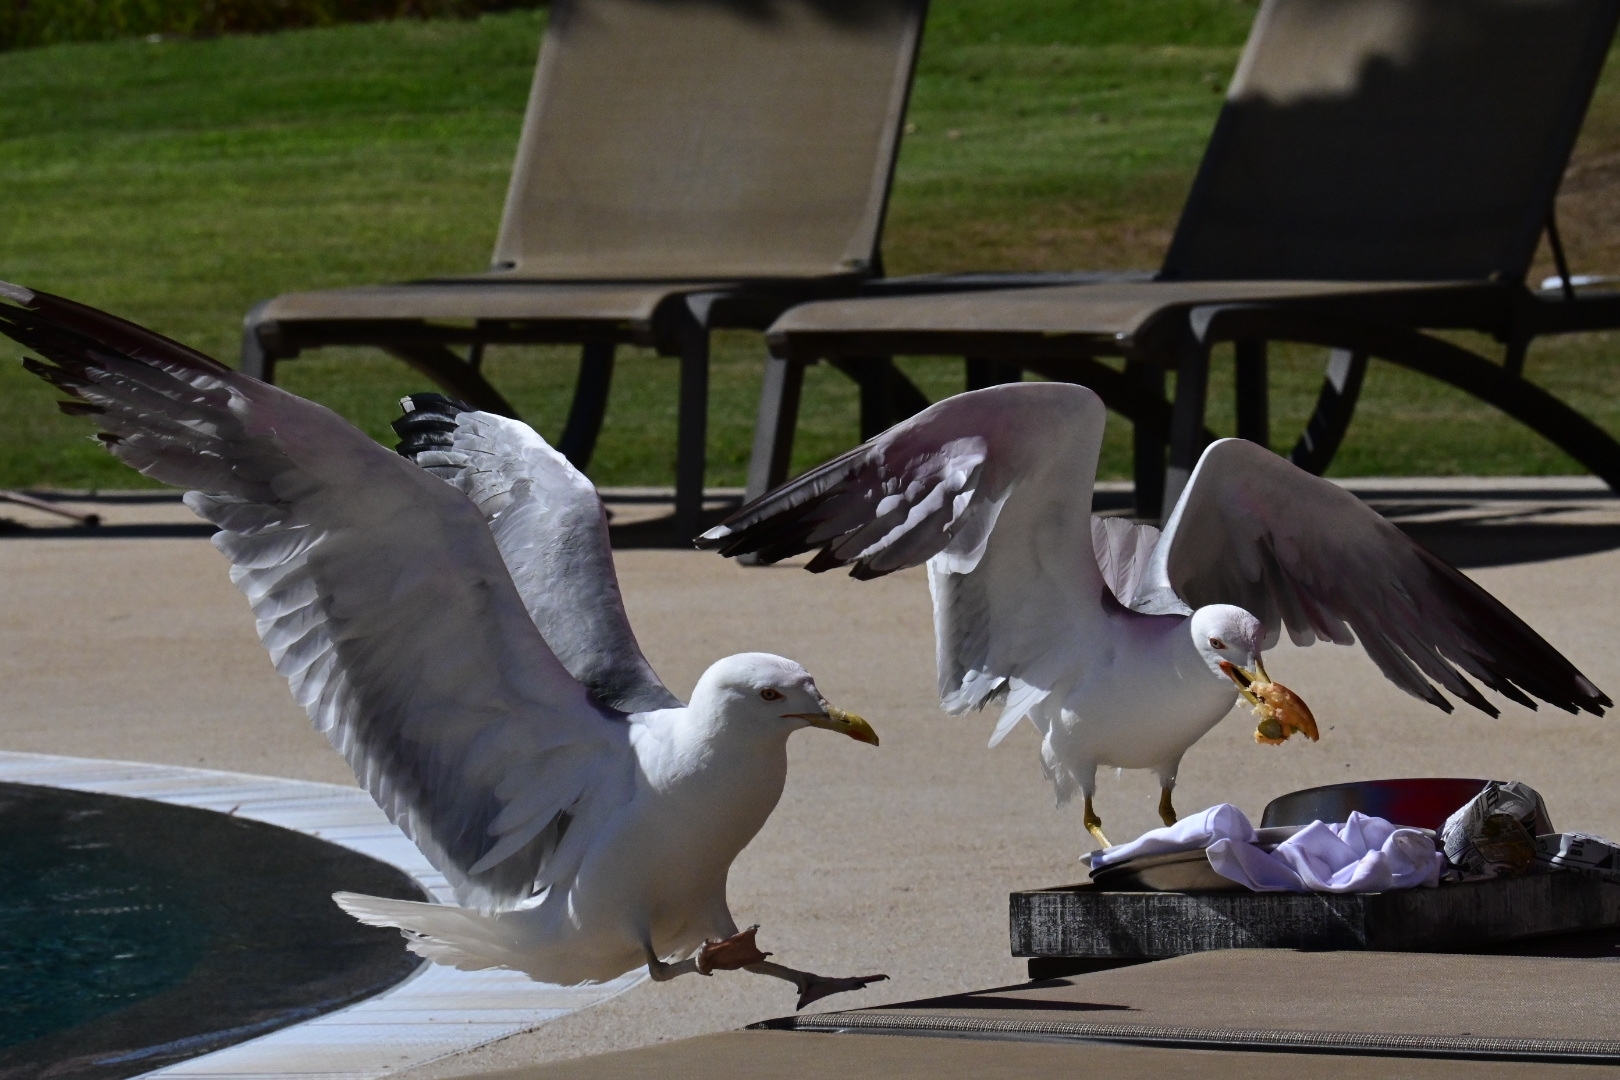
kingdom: Animalia
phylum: Chordata
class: Aves
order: Charadriiformes
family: Laridae
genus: Larus
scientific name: Larus michahellis
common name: Yellow-legged gull
